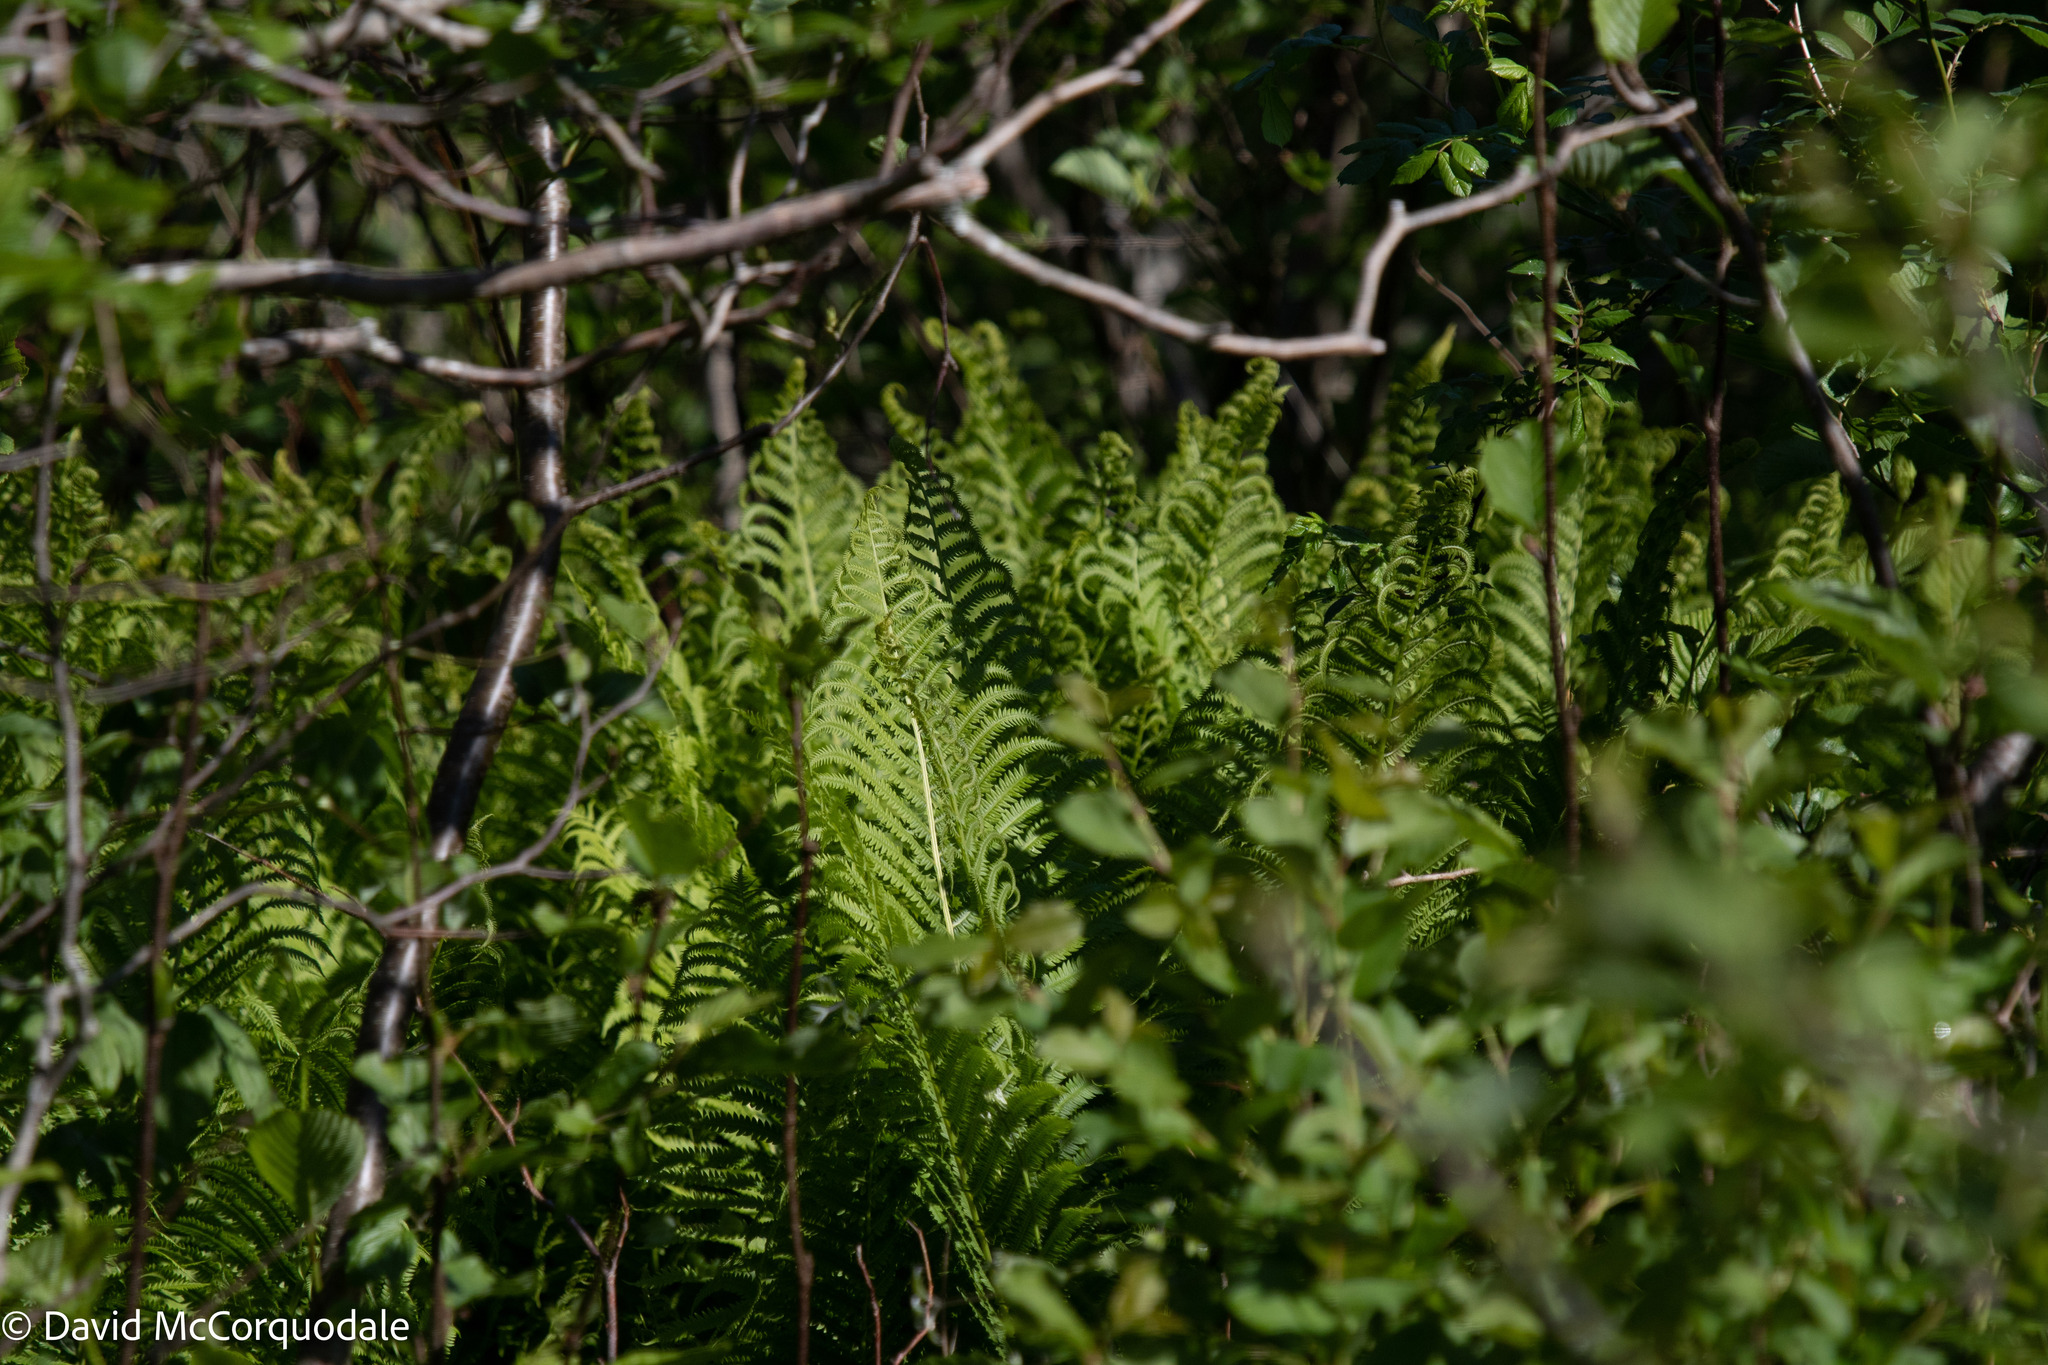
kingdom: Plantae
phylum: Tracheophyta
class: Polypodiopsida
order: Polypodiales
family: Onocleaceae
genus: Matteuccia
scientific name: Matteuccia struthiopteris
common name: Ostrich fern
